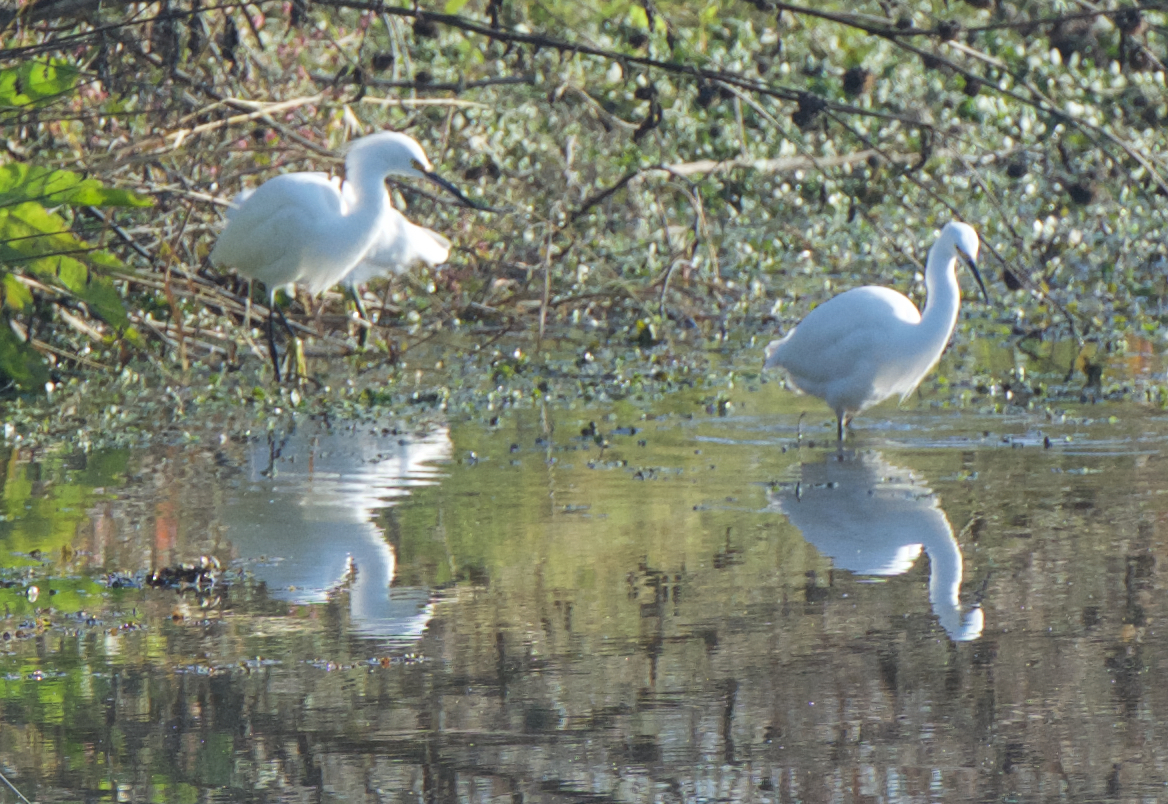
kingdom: Animalia
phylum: Chordata
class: Aves
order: Pelecaniformes
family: Ardeidae
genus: Egretta
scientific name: Egretta thula
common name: Snowy egret
